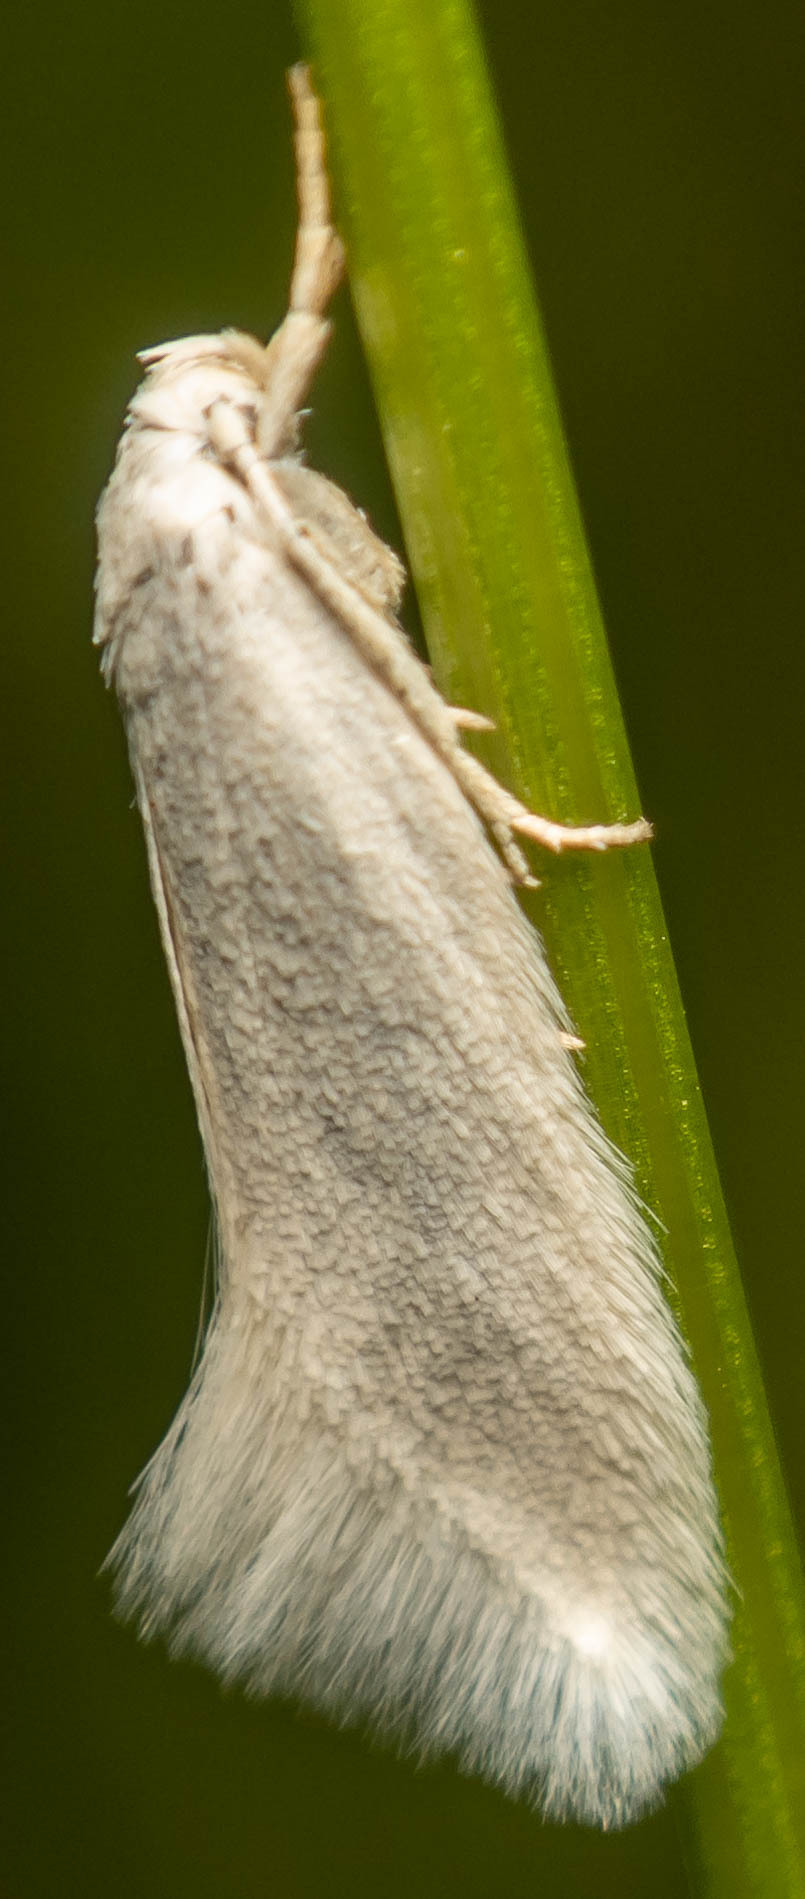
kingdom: Animalia
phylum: Arthropoda
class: Insecta
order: Lepidoptera
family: Elachistidae
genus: Elachista
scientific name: Elachista argentella
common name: Swan-feather dwarf
